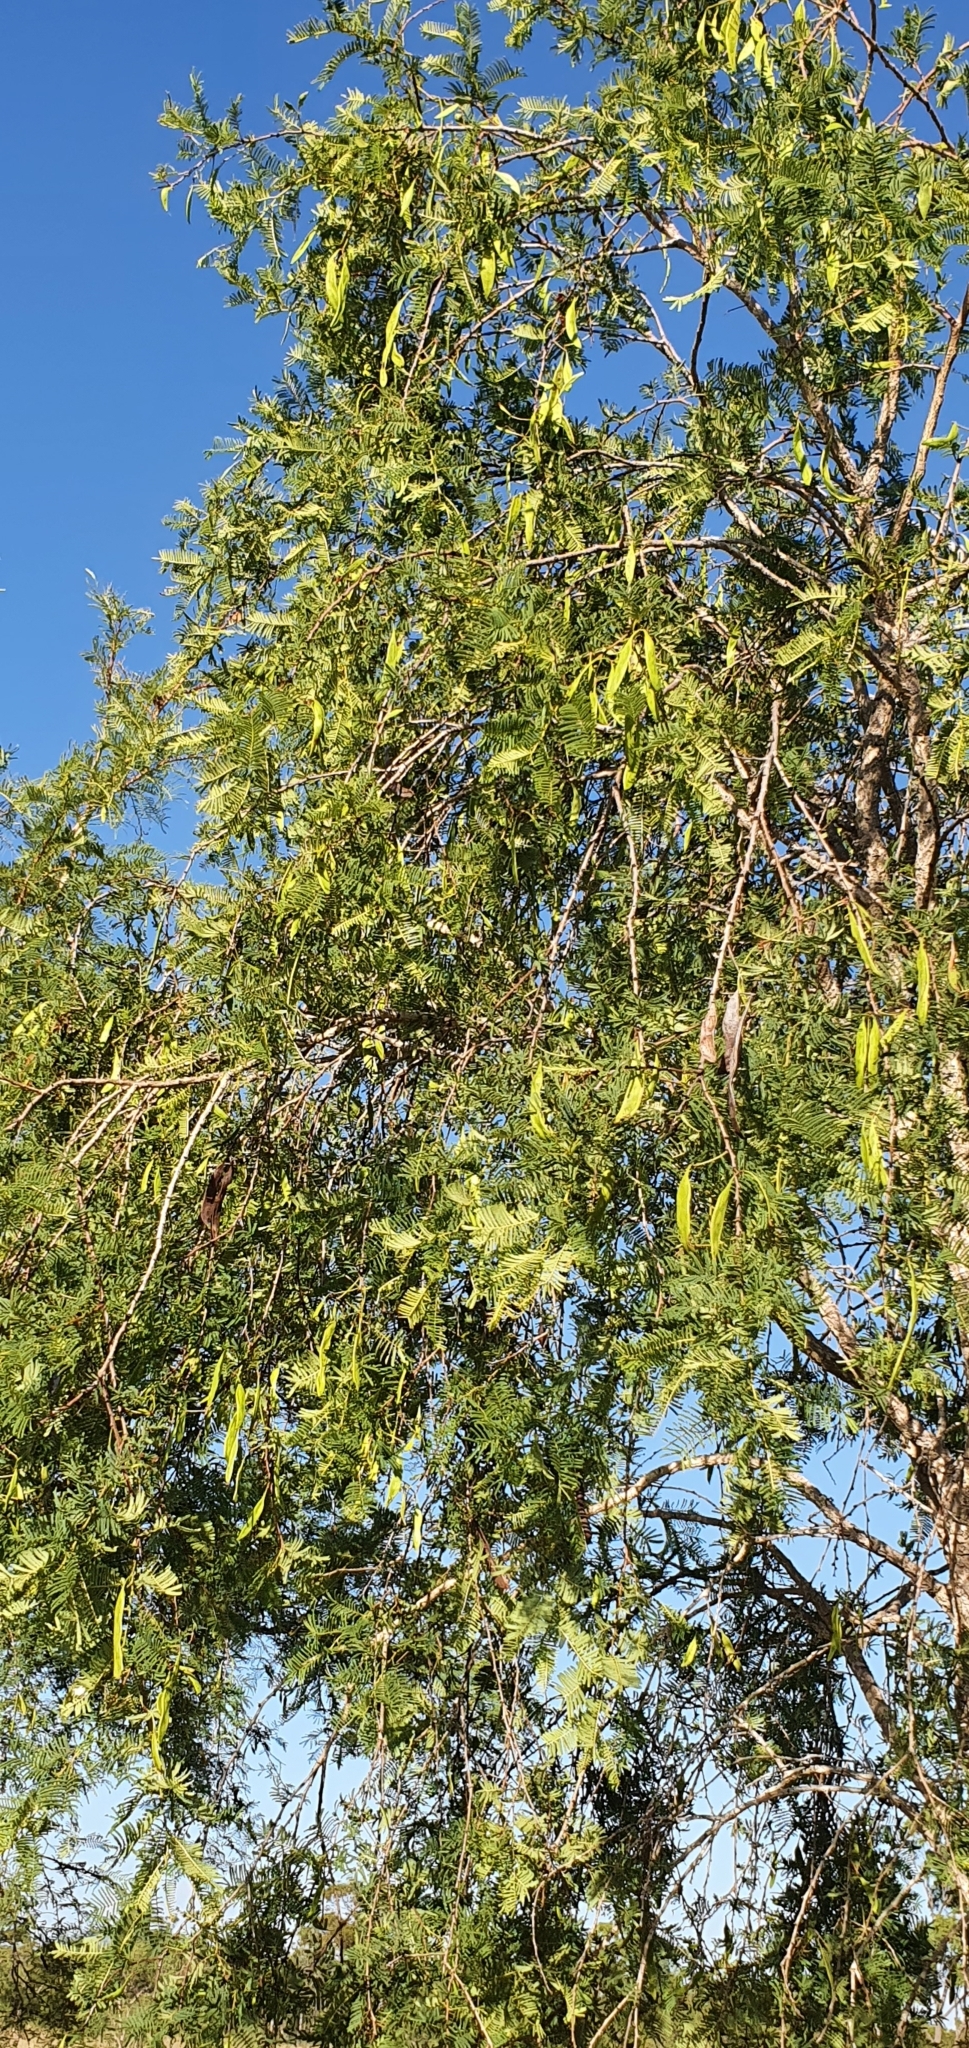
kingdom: Plantae
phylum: Tracheophyta
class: Magnoliopsida
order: Fabales
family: Fabaceae
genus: Vachellia
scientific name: Vachellia bidwillii
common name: Corkwood wattle
